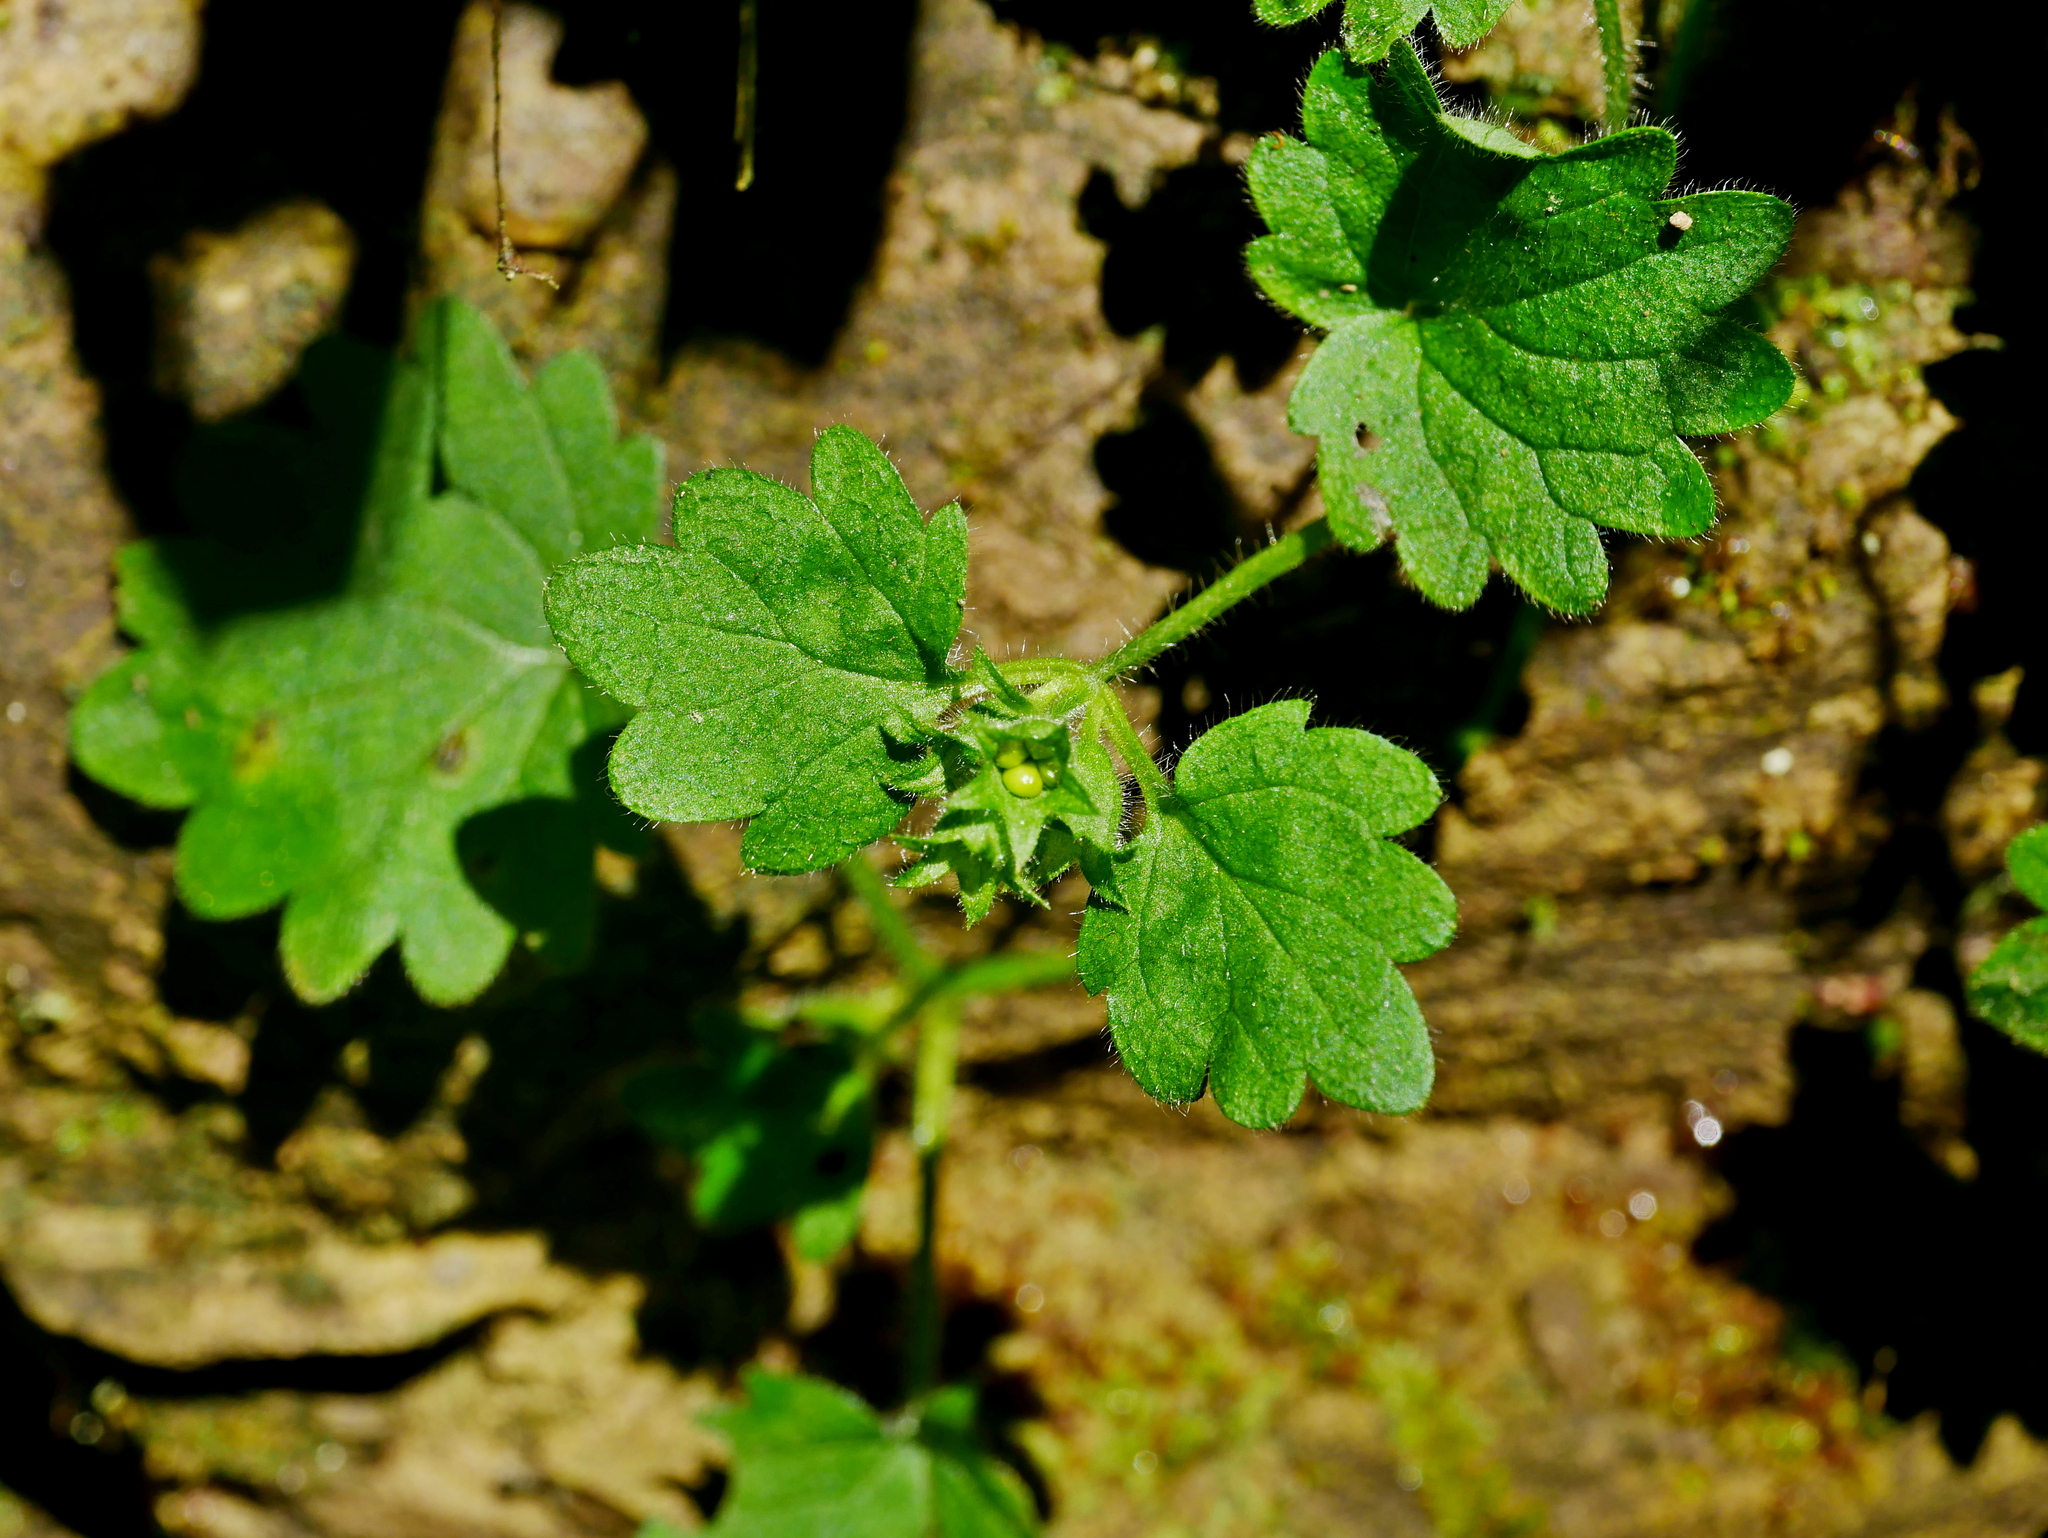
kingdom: Plantae
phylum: Tracheophyta
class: Magnoliopsida
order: Lamiales
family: Lamiaceae
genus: Suzukia
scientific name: Suzukia shikikunensis
